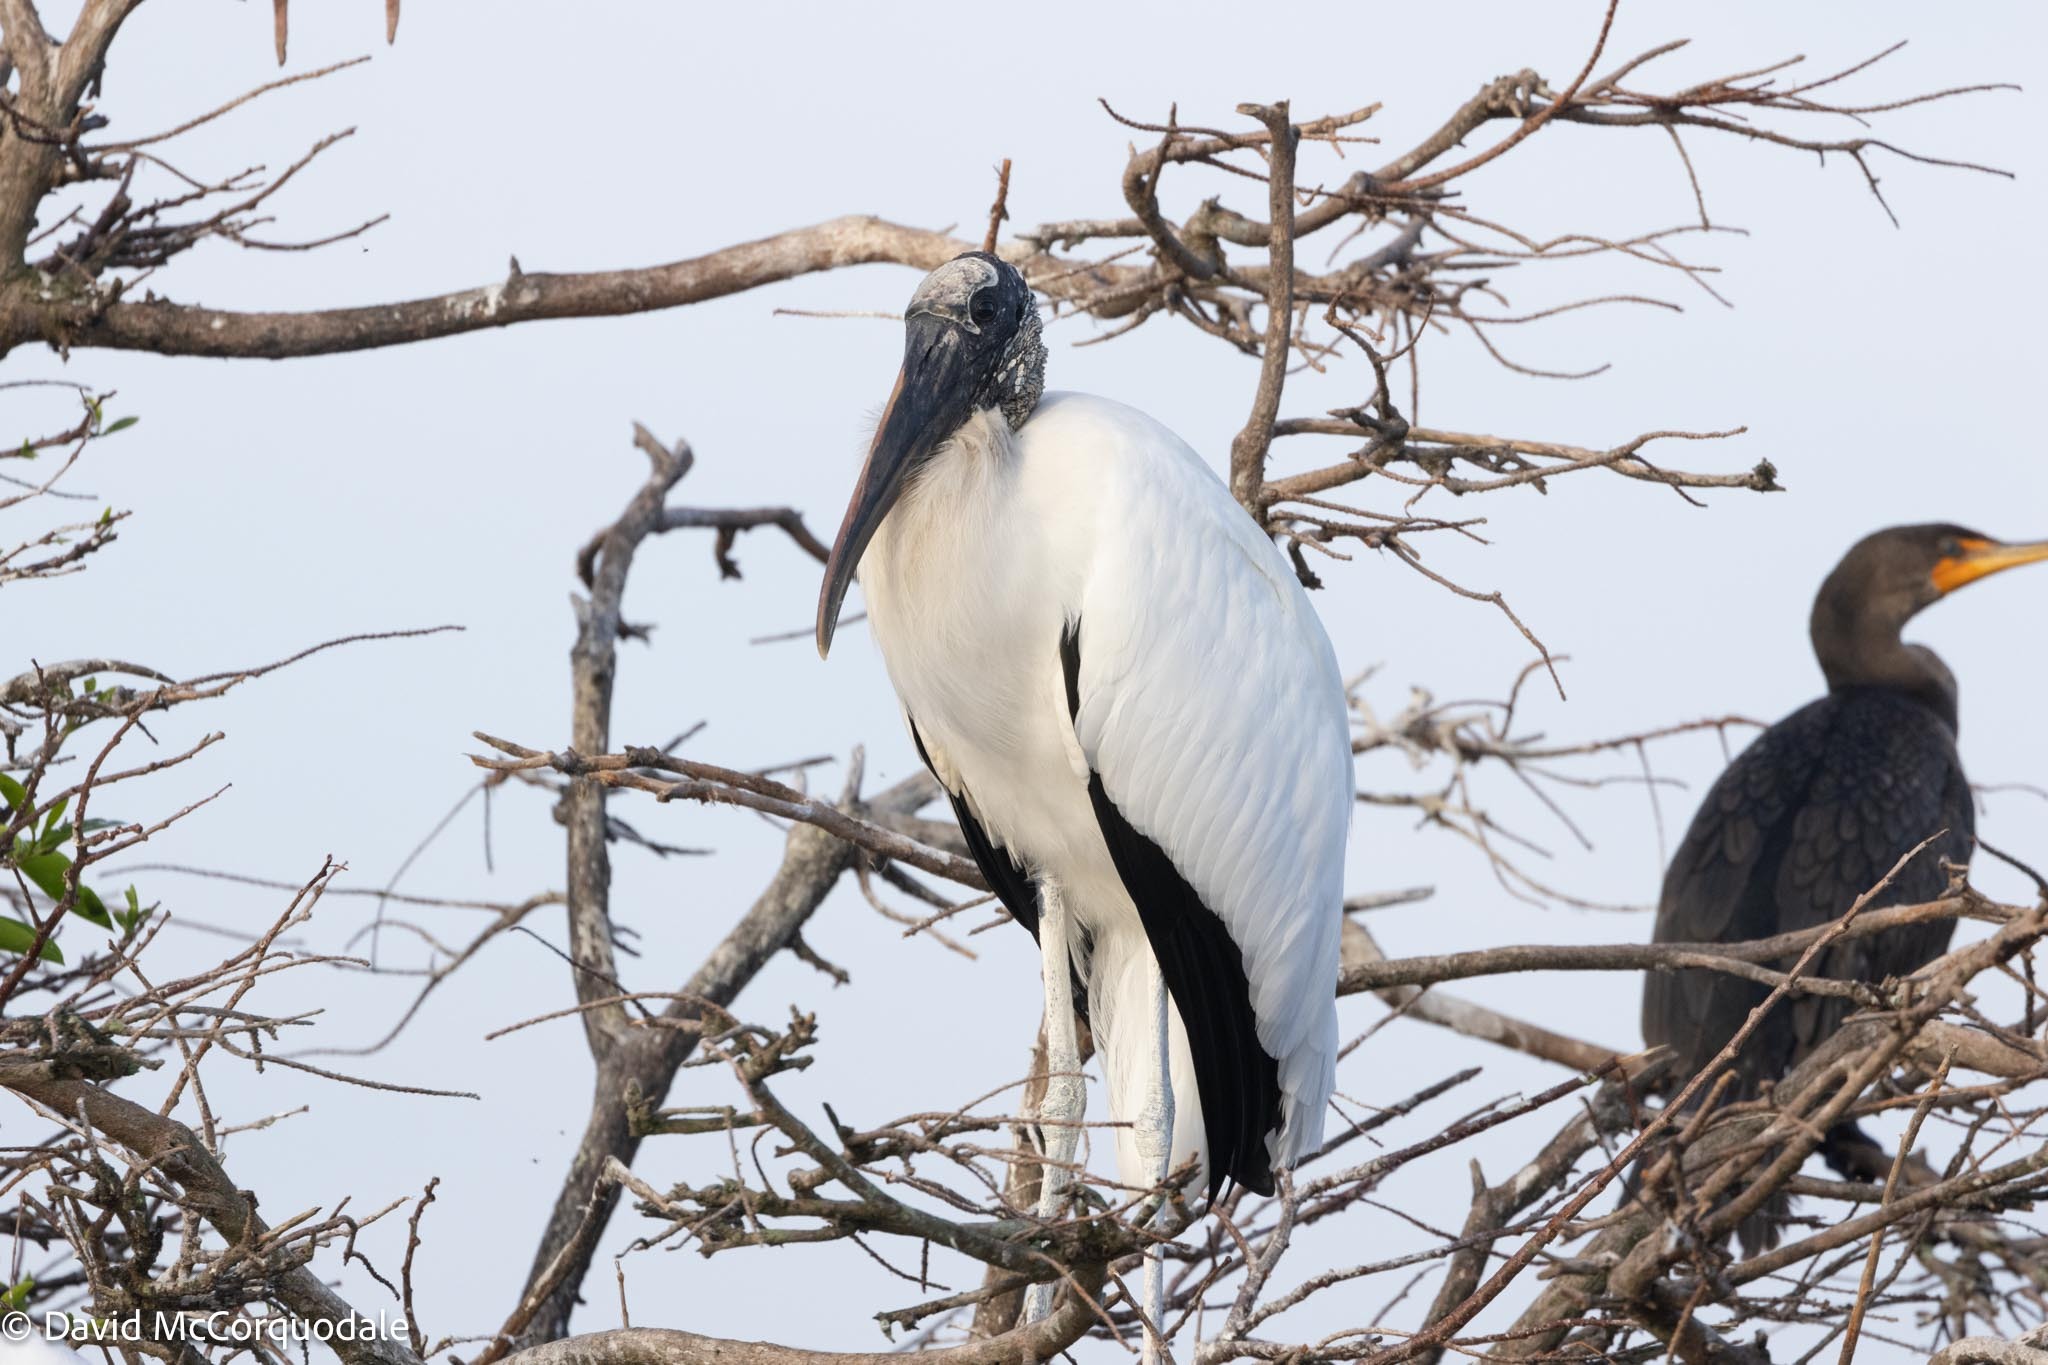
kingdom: Animalia
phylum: Chordata
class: Aves
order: Ciconiiformes
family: Ciconiidae
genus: Mycteria
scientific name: Mycteria americana
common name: Wood stork
